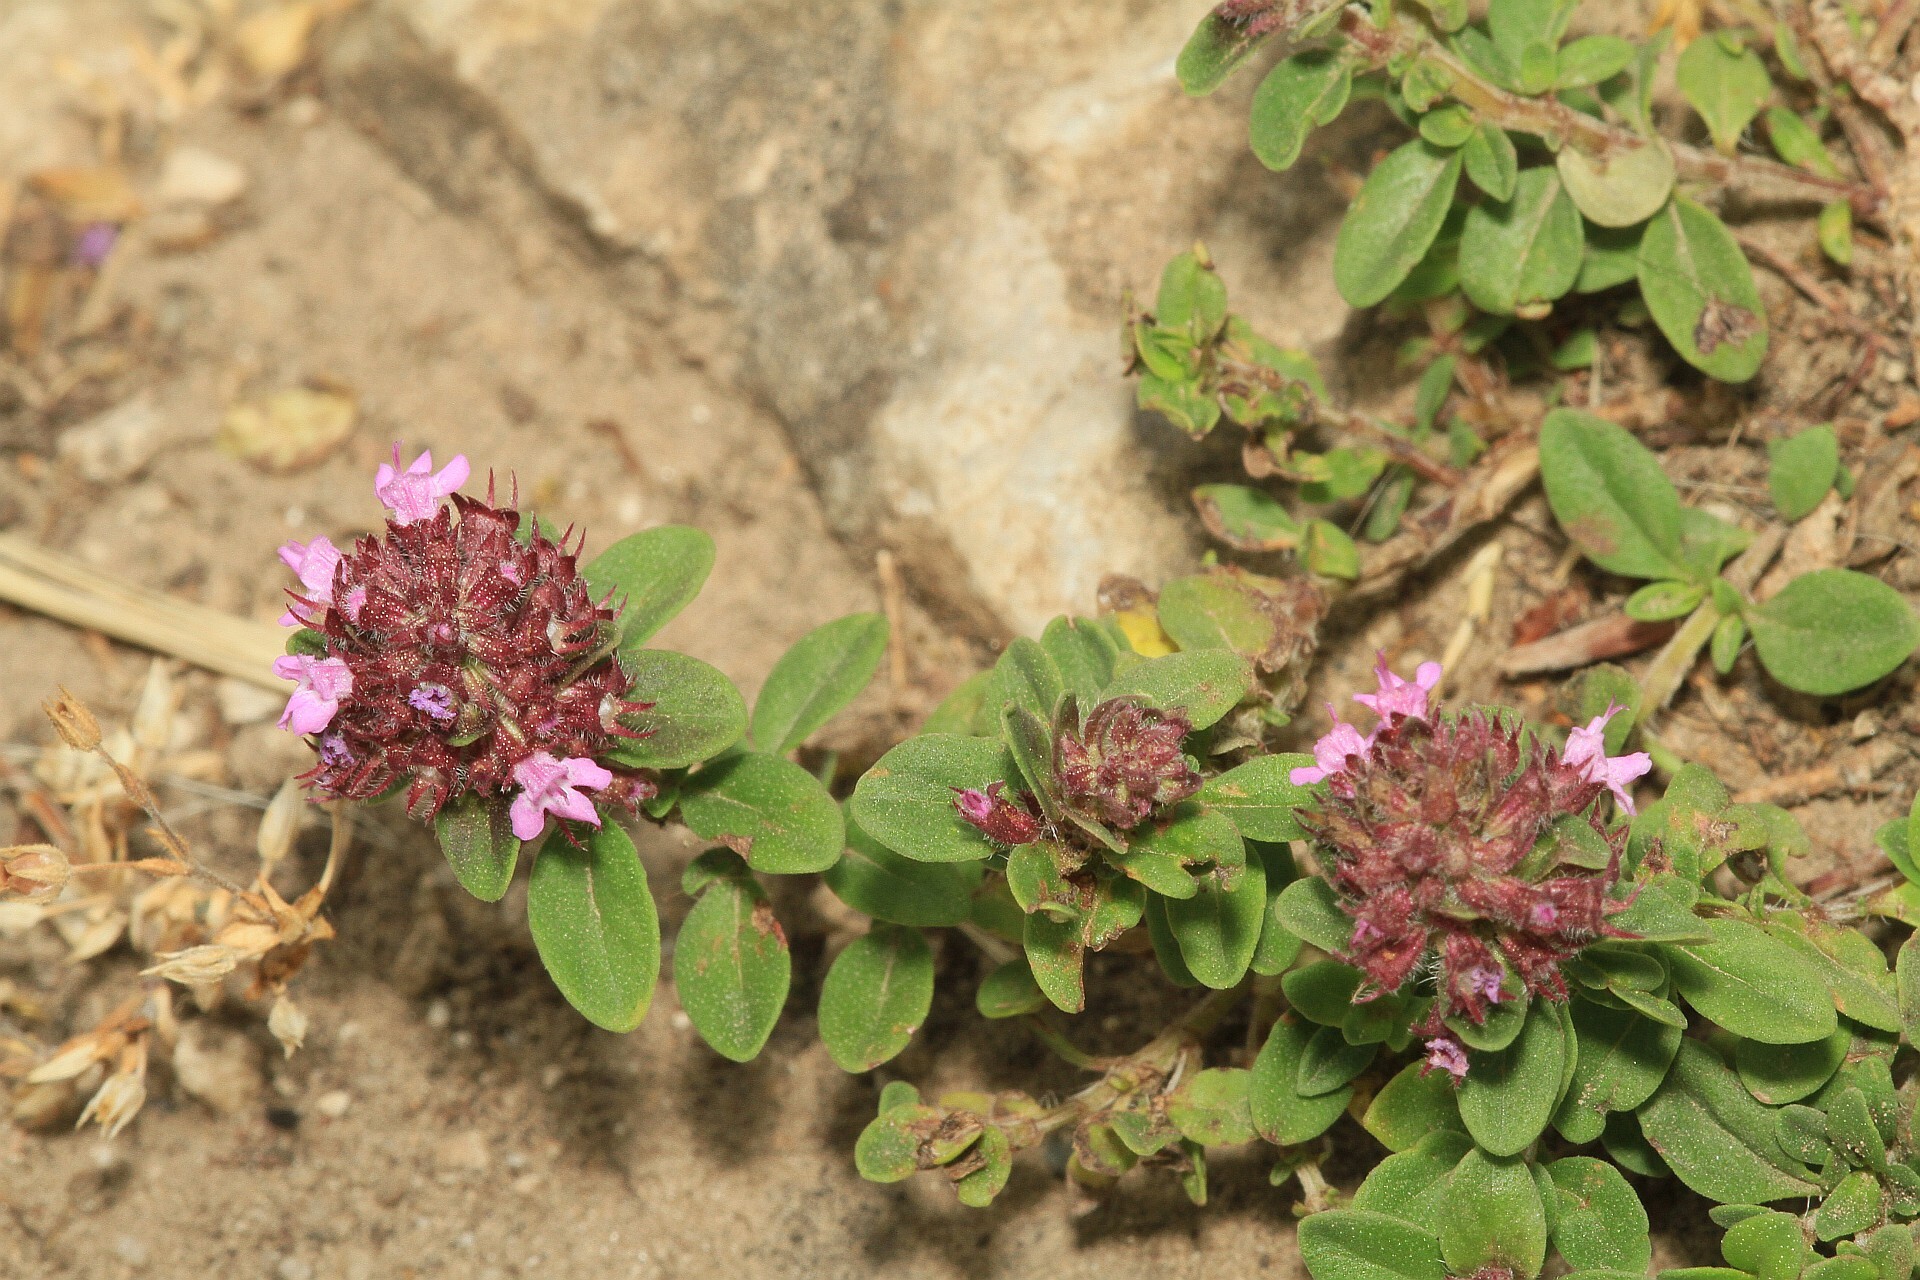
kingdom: Plantae
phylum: Tracheophyta
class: Magnoliopsida
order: Lamiales
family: Lamiaceae
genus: Thymus
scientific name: Thymus pulegioides
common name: Large thyme
